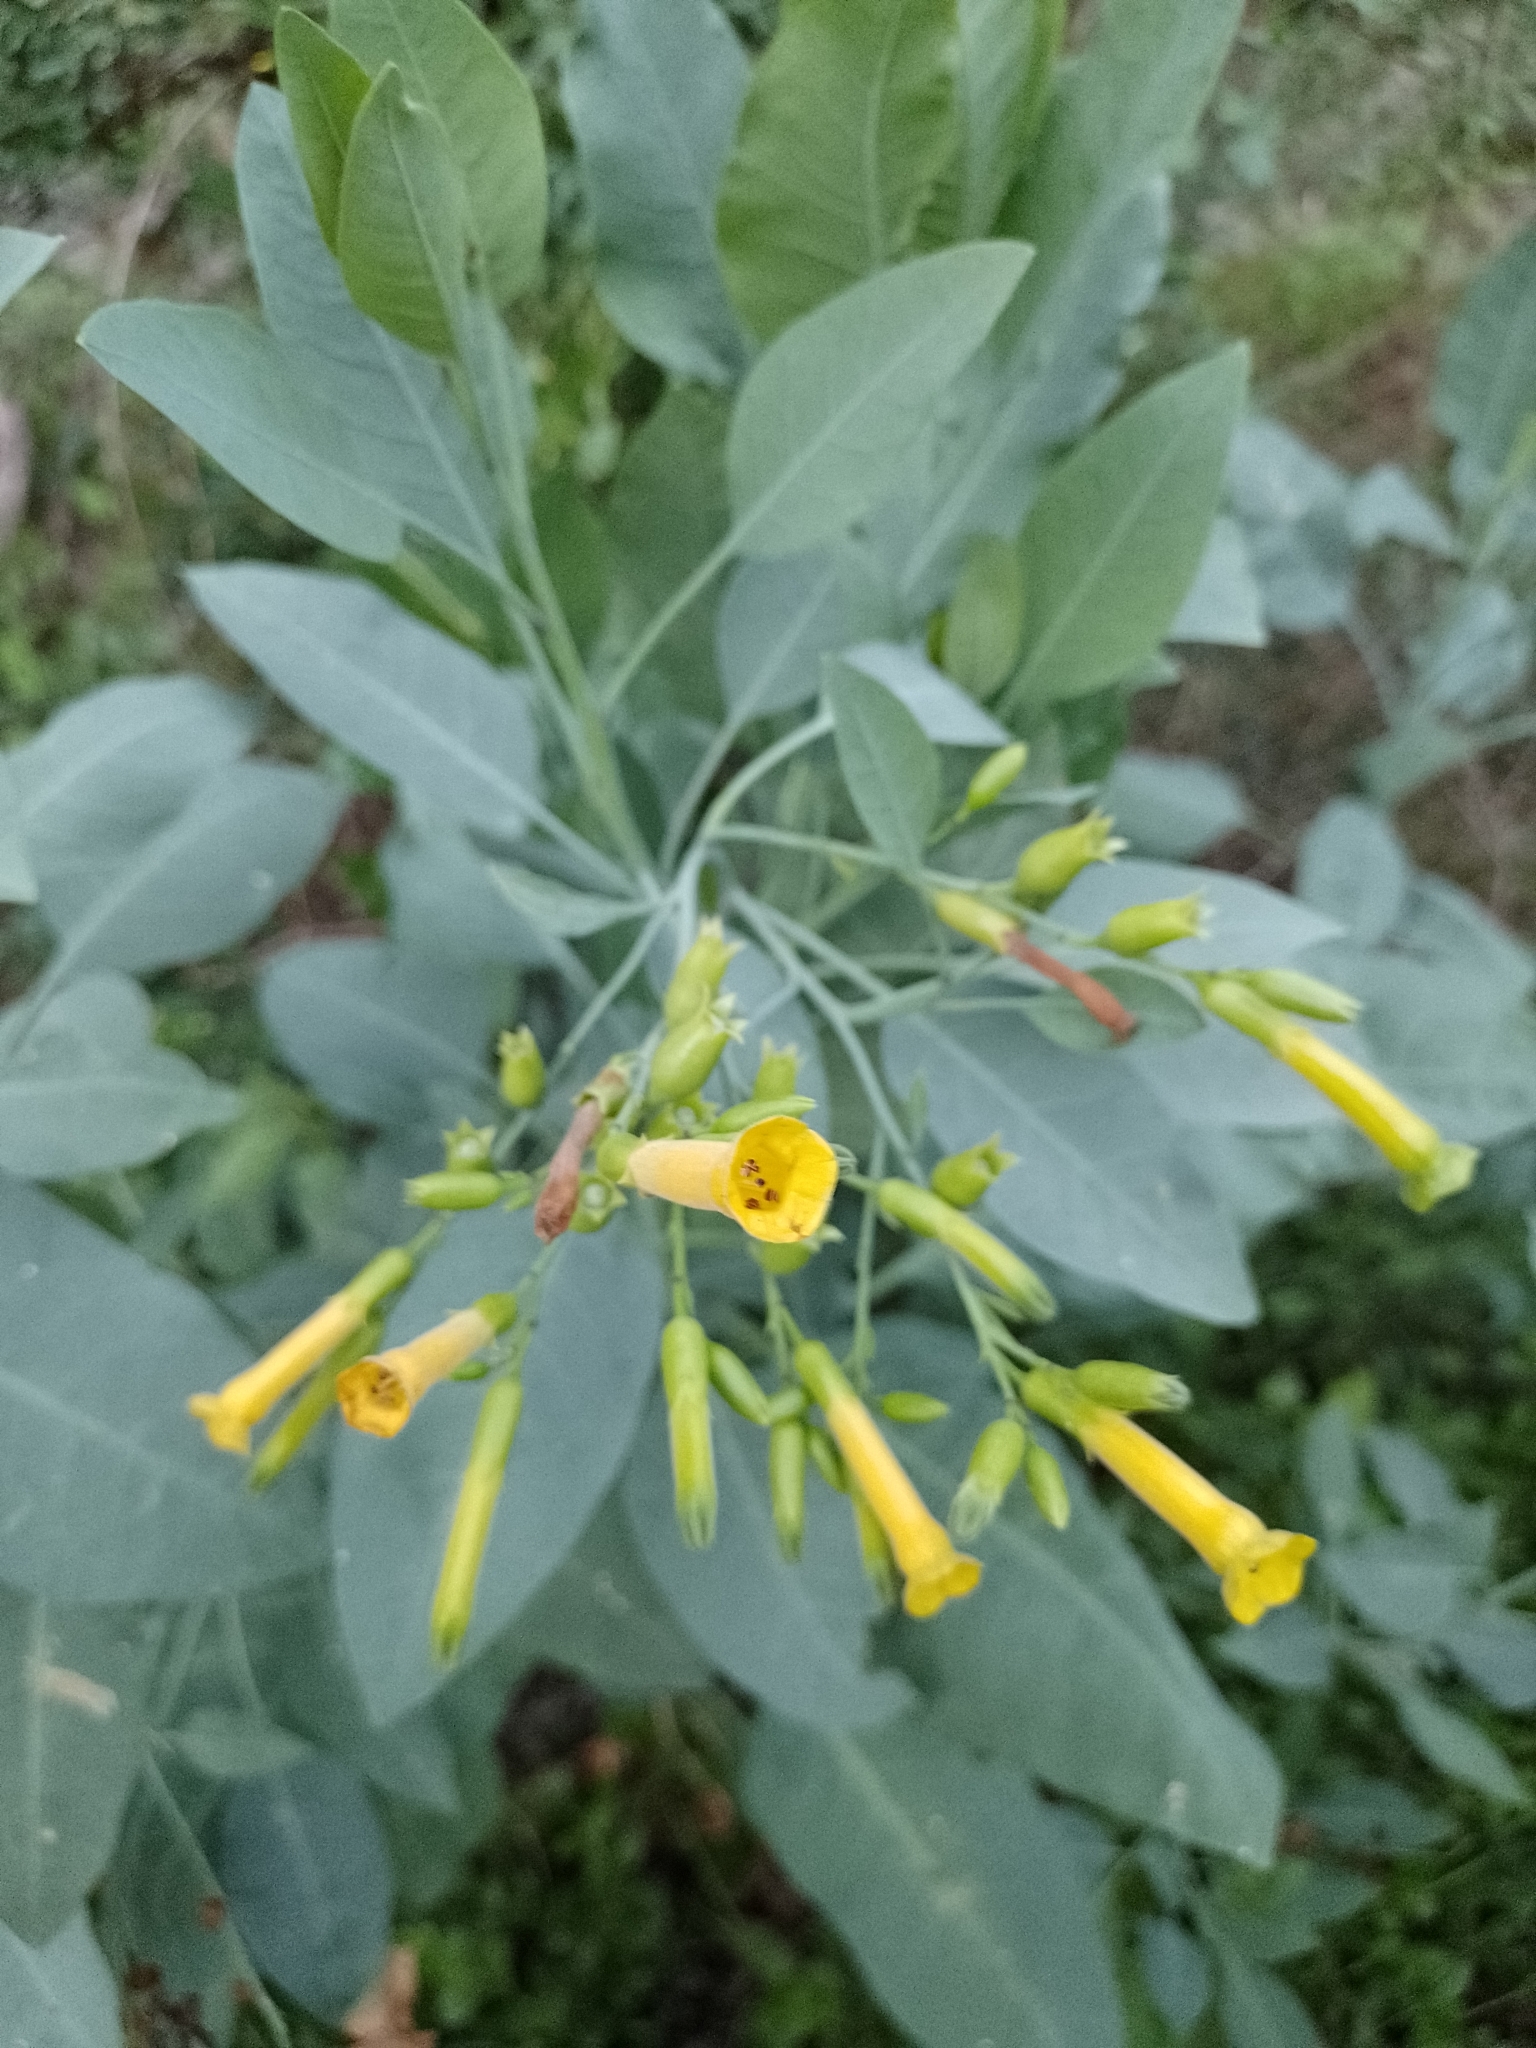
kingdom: Plantae
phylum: Tracheophyta
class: Magnoliopsida
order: Solanales
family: Solanaceae
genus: Nicotiana
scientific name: Nicotiana glauca
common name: Tree tobacco
